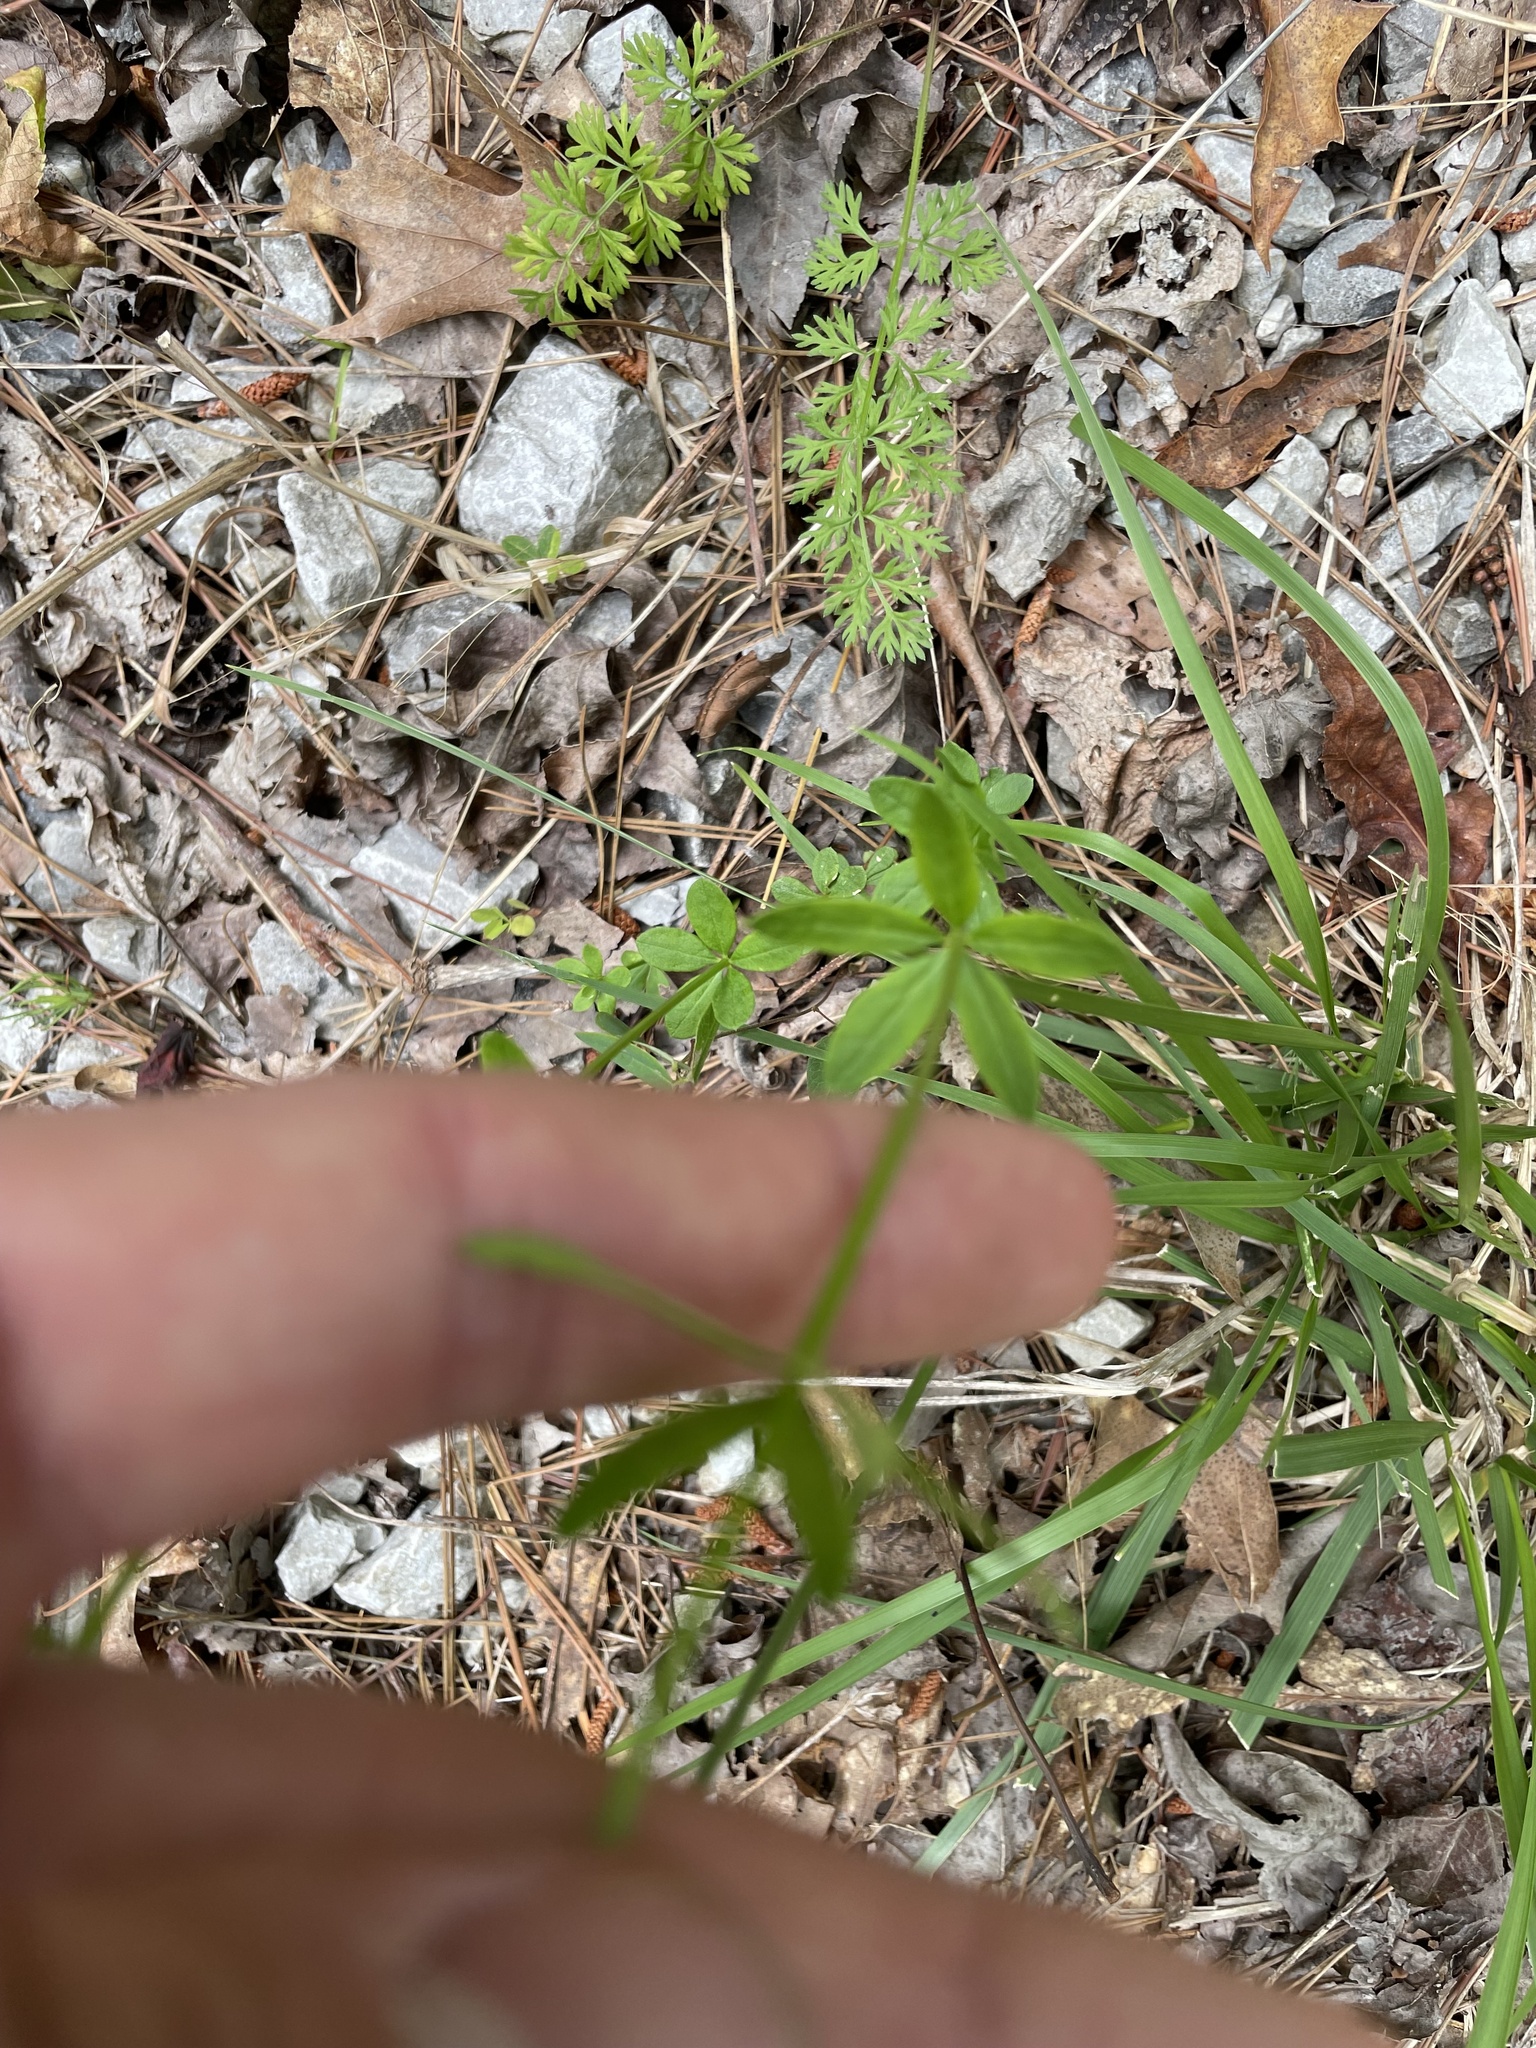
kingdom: Plantae
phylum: Tracheophyta
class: Magnoliopsida
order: Fabales
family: Polygalaceae
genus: Polygala
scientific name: Polygala boykinii
